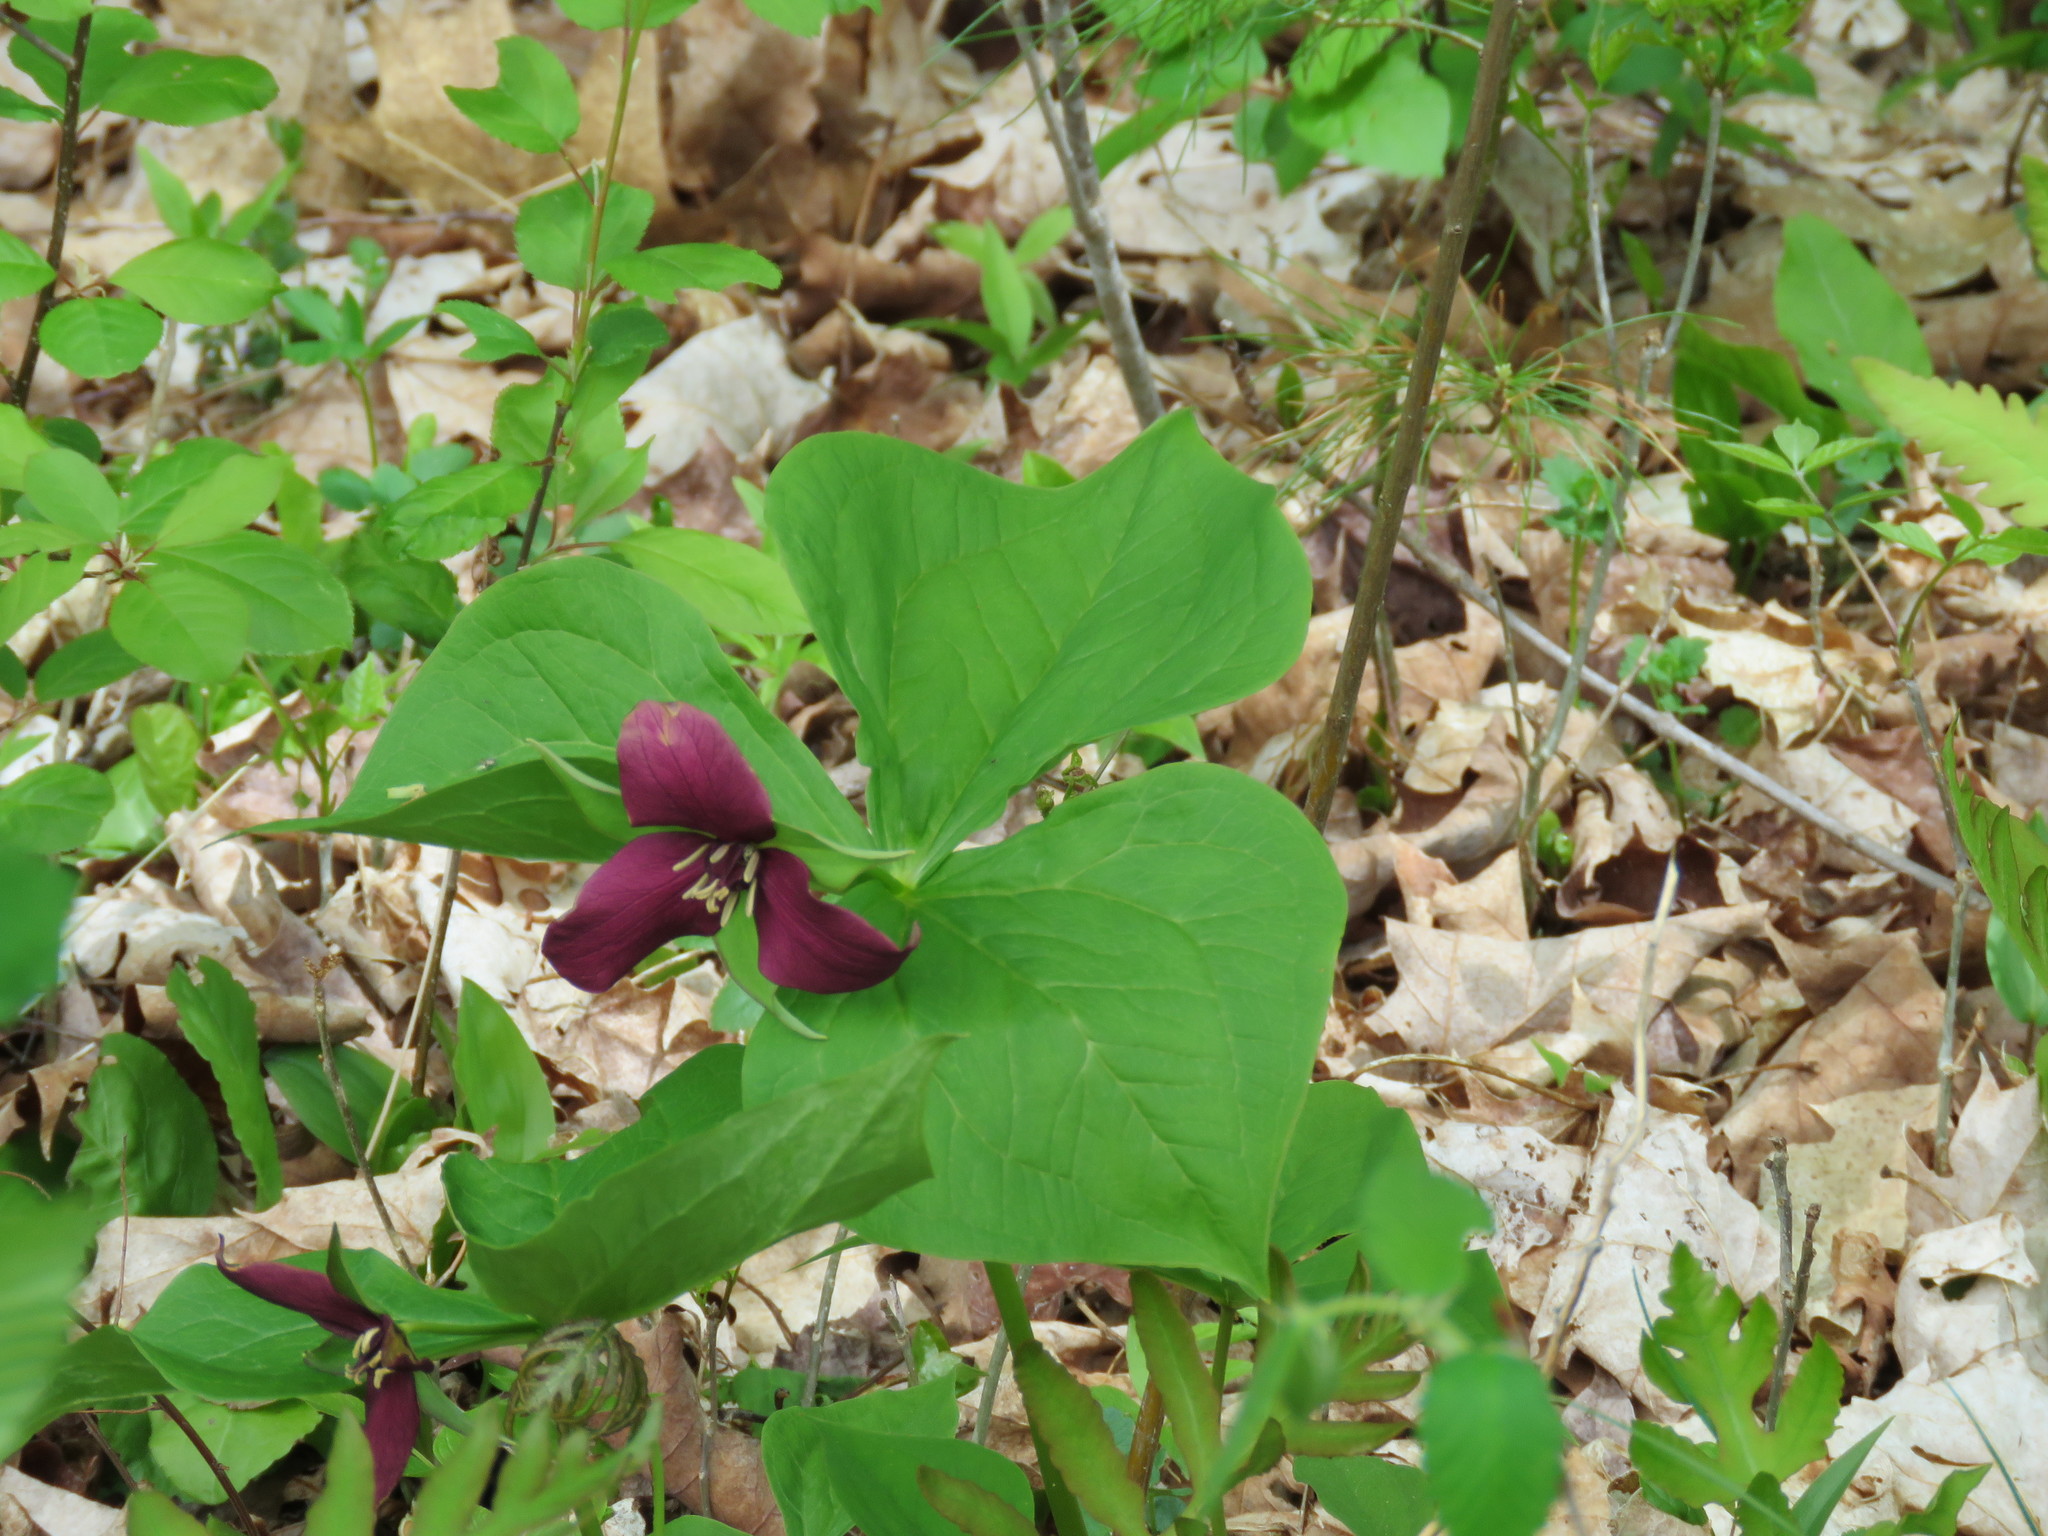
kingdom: Plantae
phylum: Tracheophyta
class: Liliopsida
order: Liliales
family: Melanthiaceae
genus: Trillium
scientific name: Trillium erectum
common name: Purple trillium
